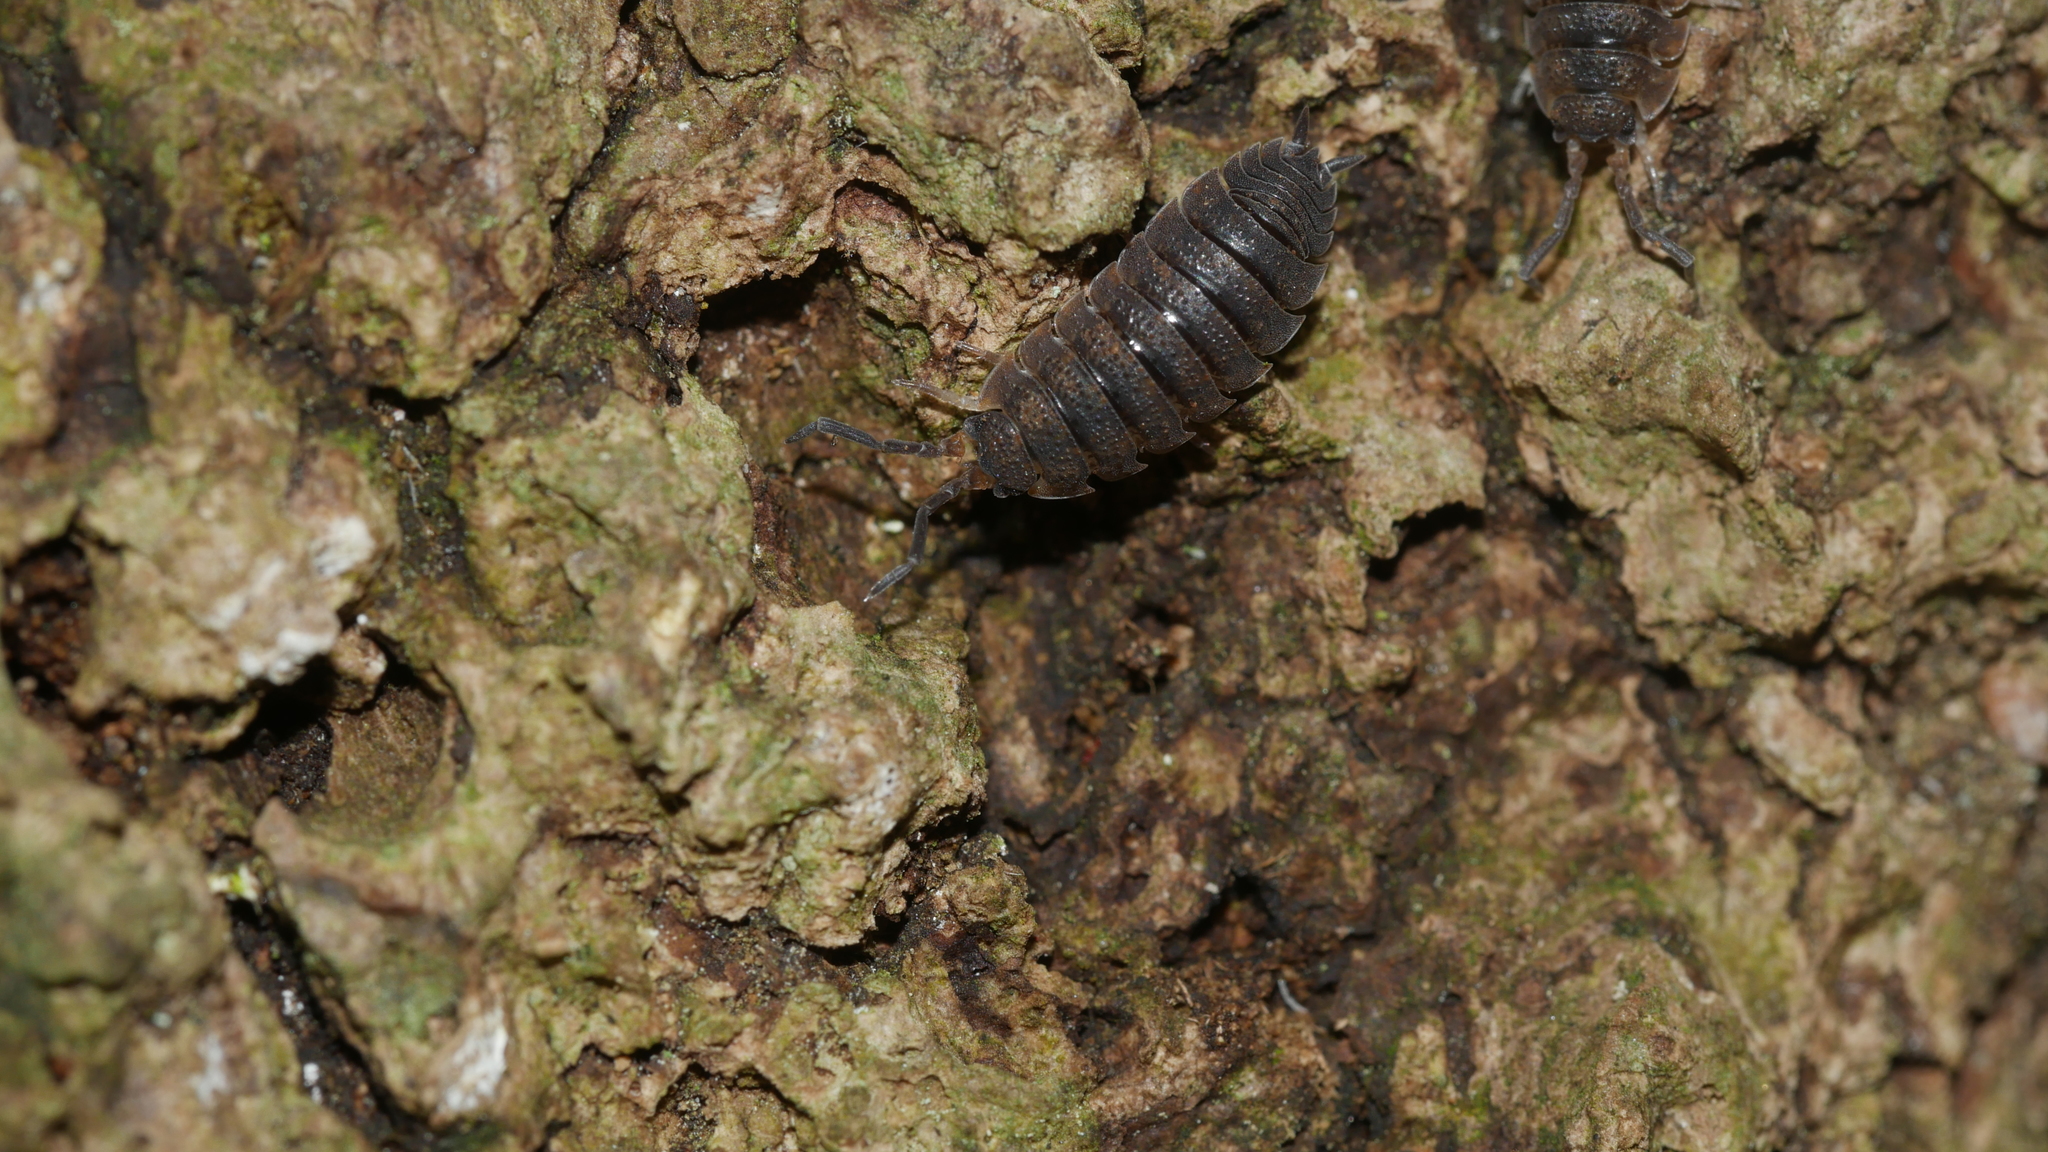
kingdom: Animalia
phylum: Arthropoda
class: Malacostraca
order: Isopoda
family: Porcellionidae
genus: Porcellio
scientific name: Porcellio scaber
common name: Common rough woodlouse
